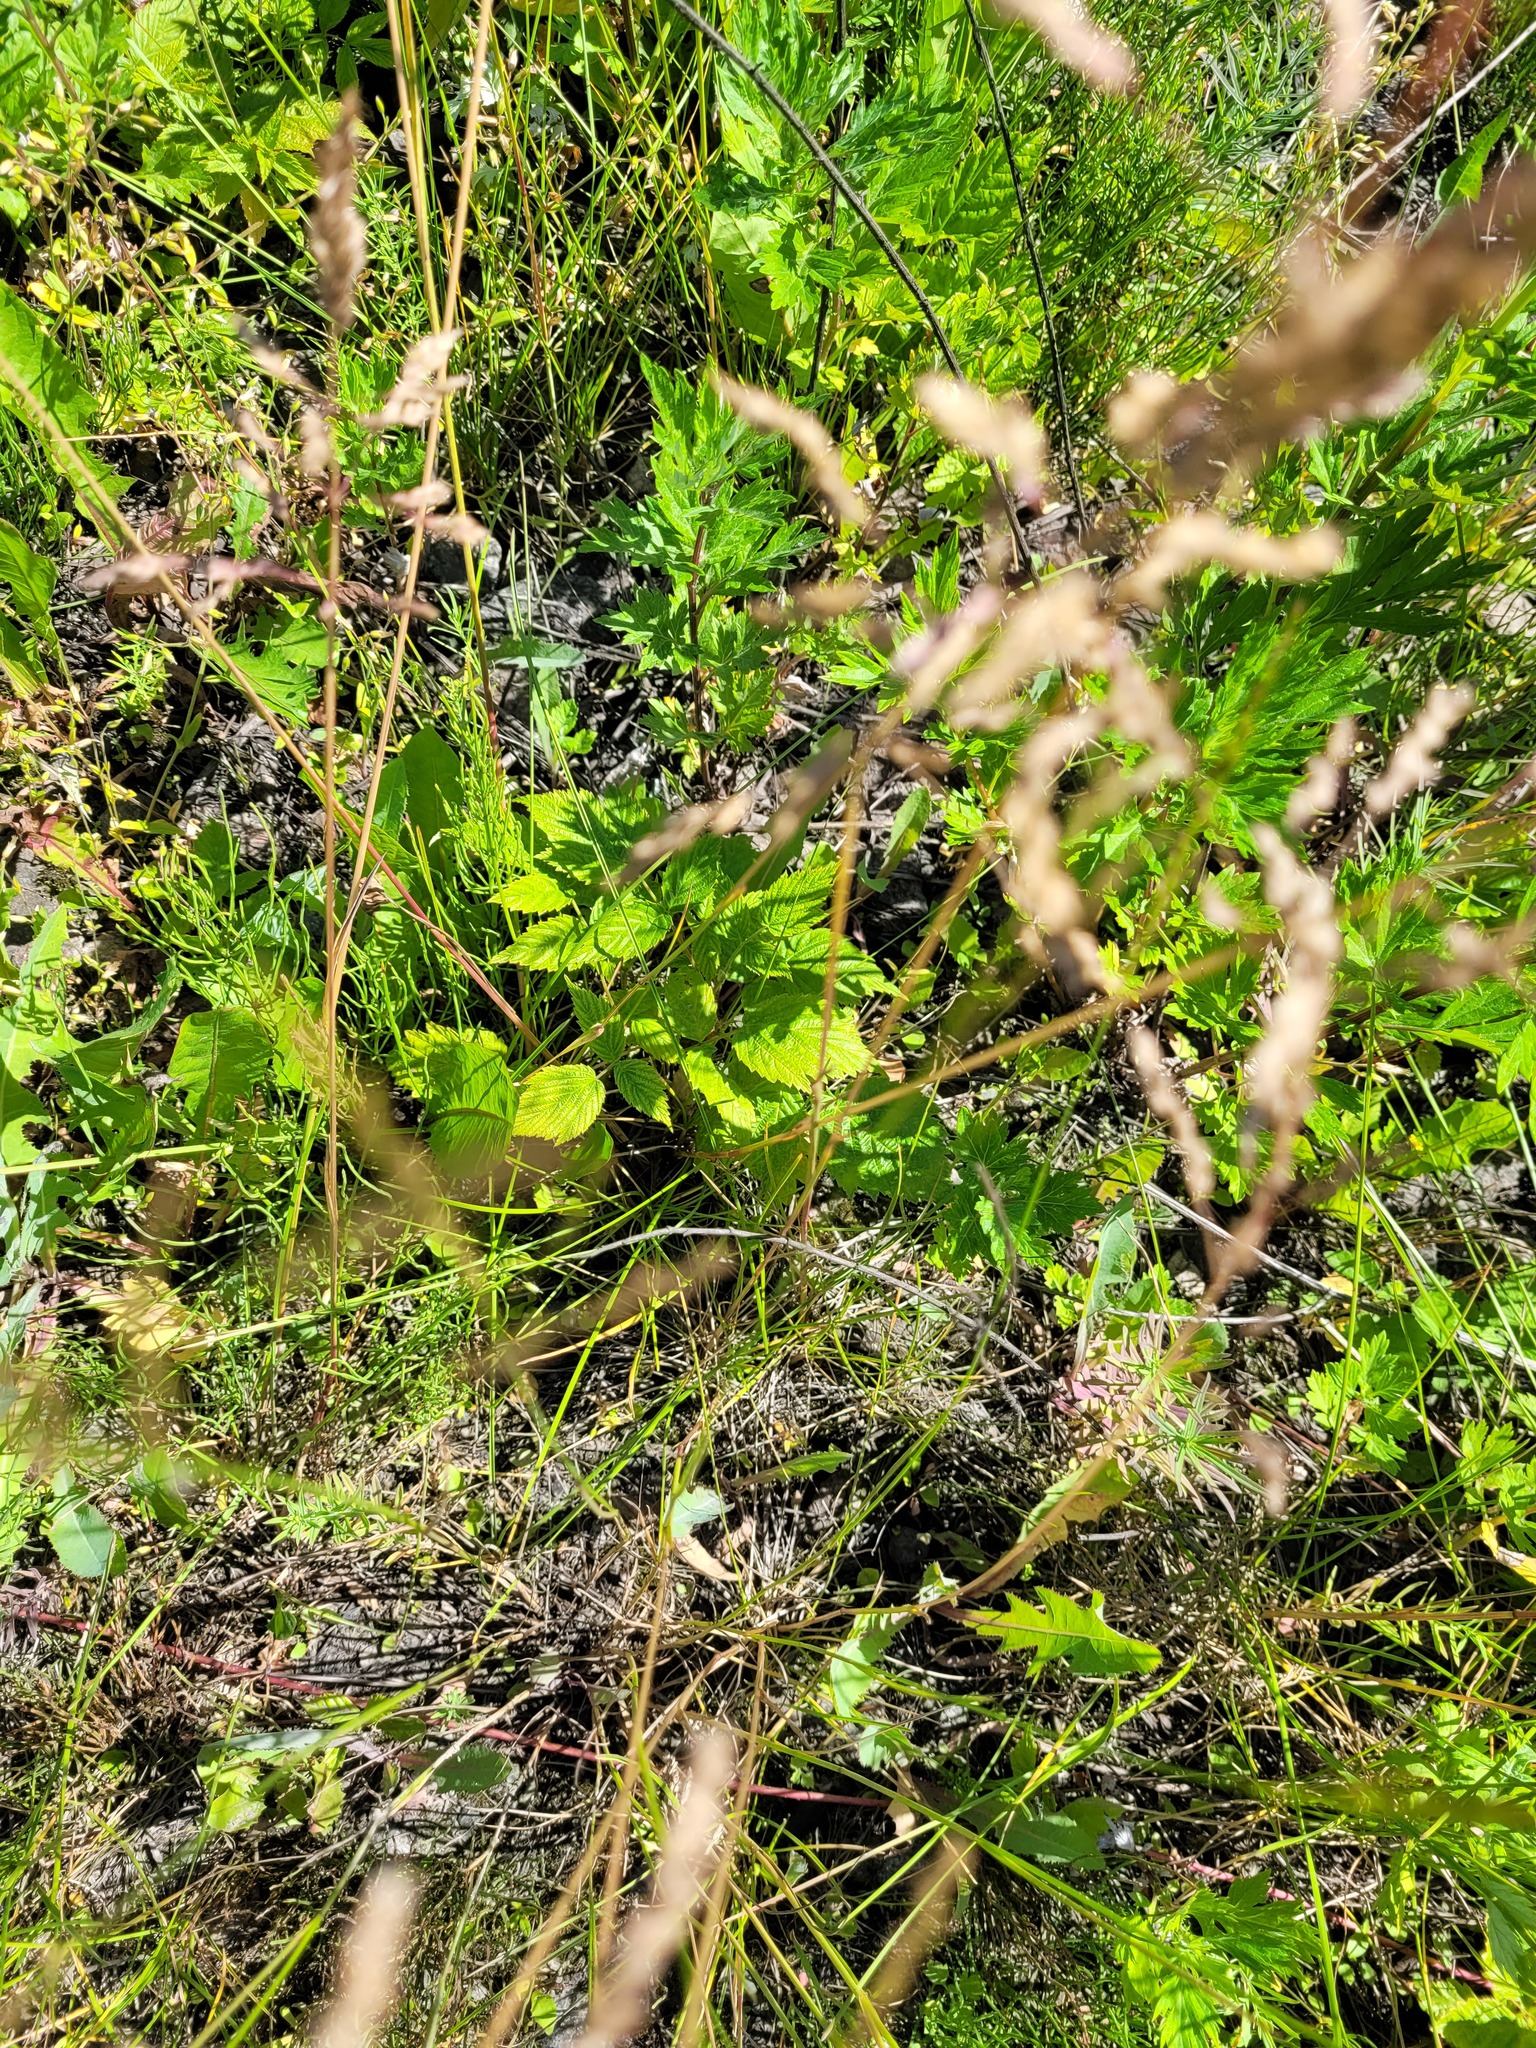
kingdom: Plantae
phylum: Tracheophyta
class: Liliopsida
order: Poales
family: Poaceae
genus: Poa
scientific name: Poa angustifolia
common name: Narrow-leaved meadow-grass
